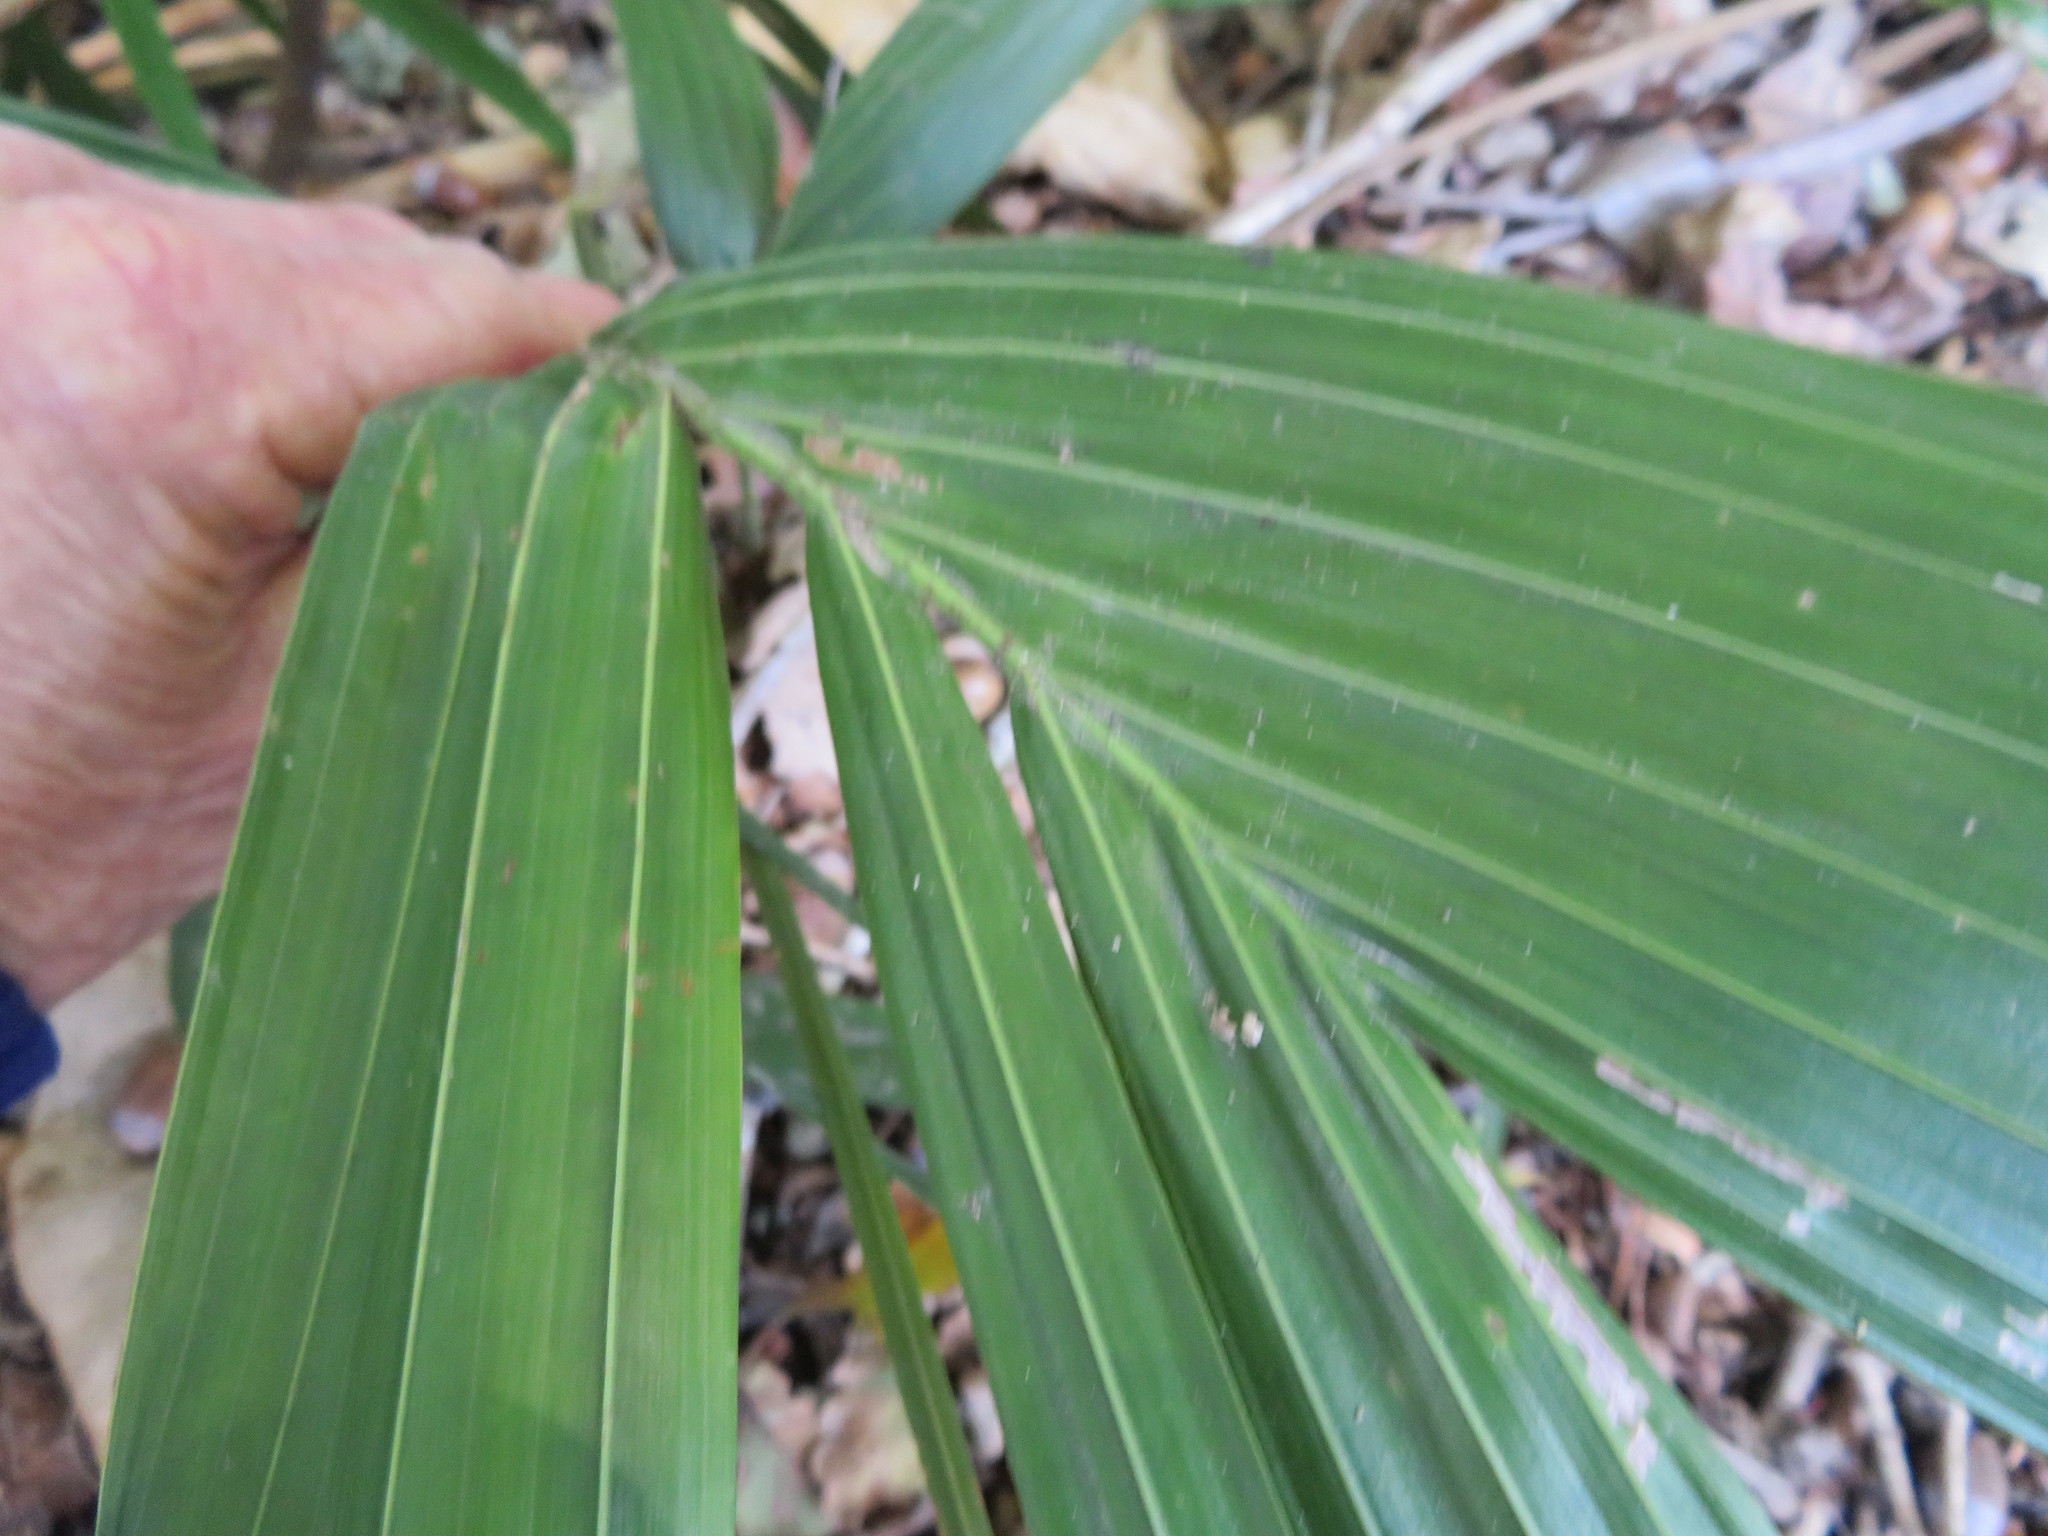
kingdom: Plantae
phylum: Tracheophyta
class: Liliopsida
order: Arecales
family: Arecaceae
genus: Archontophoenix
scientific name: Archontophoenix cunninghamiana
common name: Piccabeen bangalow palm
